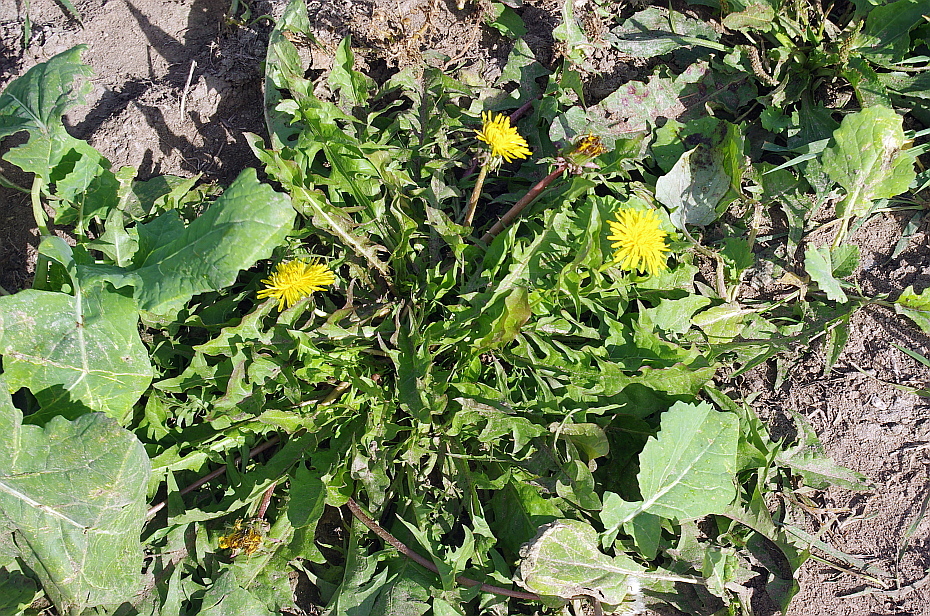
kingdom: Plantae
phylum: Tracheophyta
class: Magnoliopsida
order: Asterales
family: Asteraceae
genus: Taraxacum
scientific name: Taraxacum officinale
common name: Common dandelion
